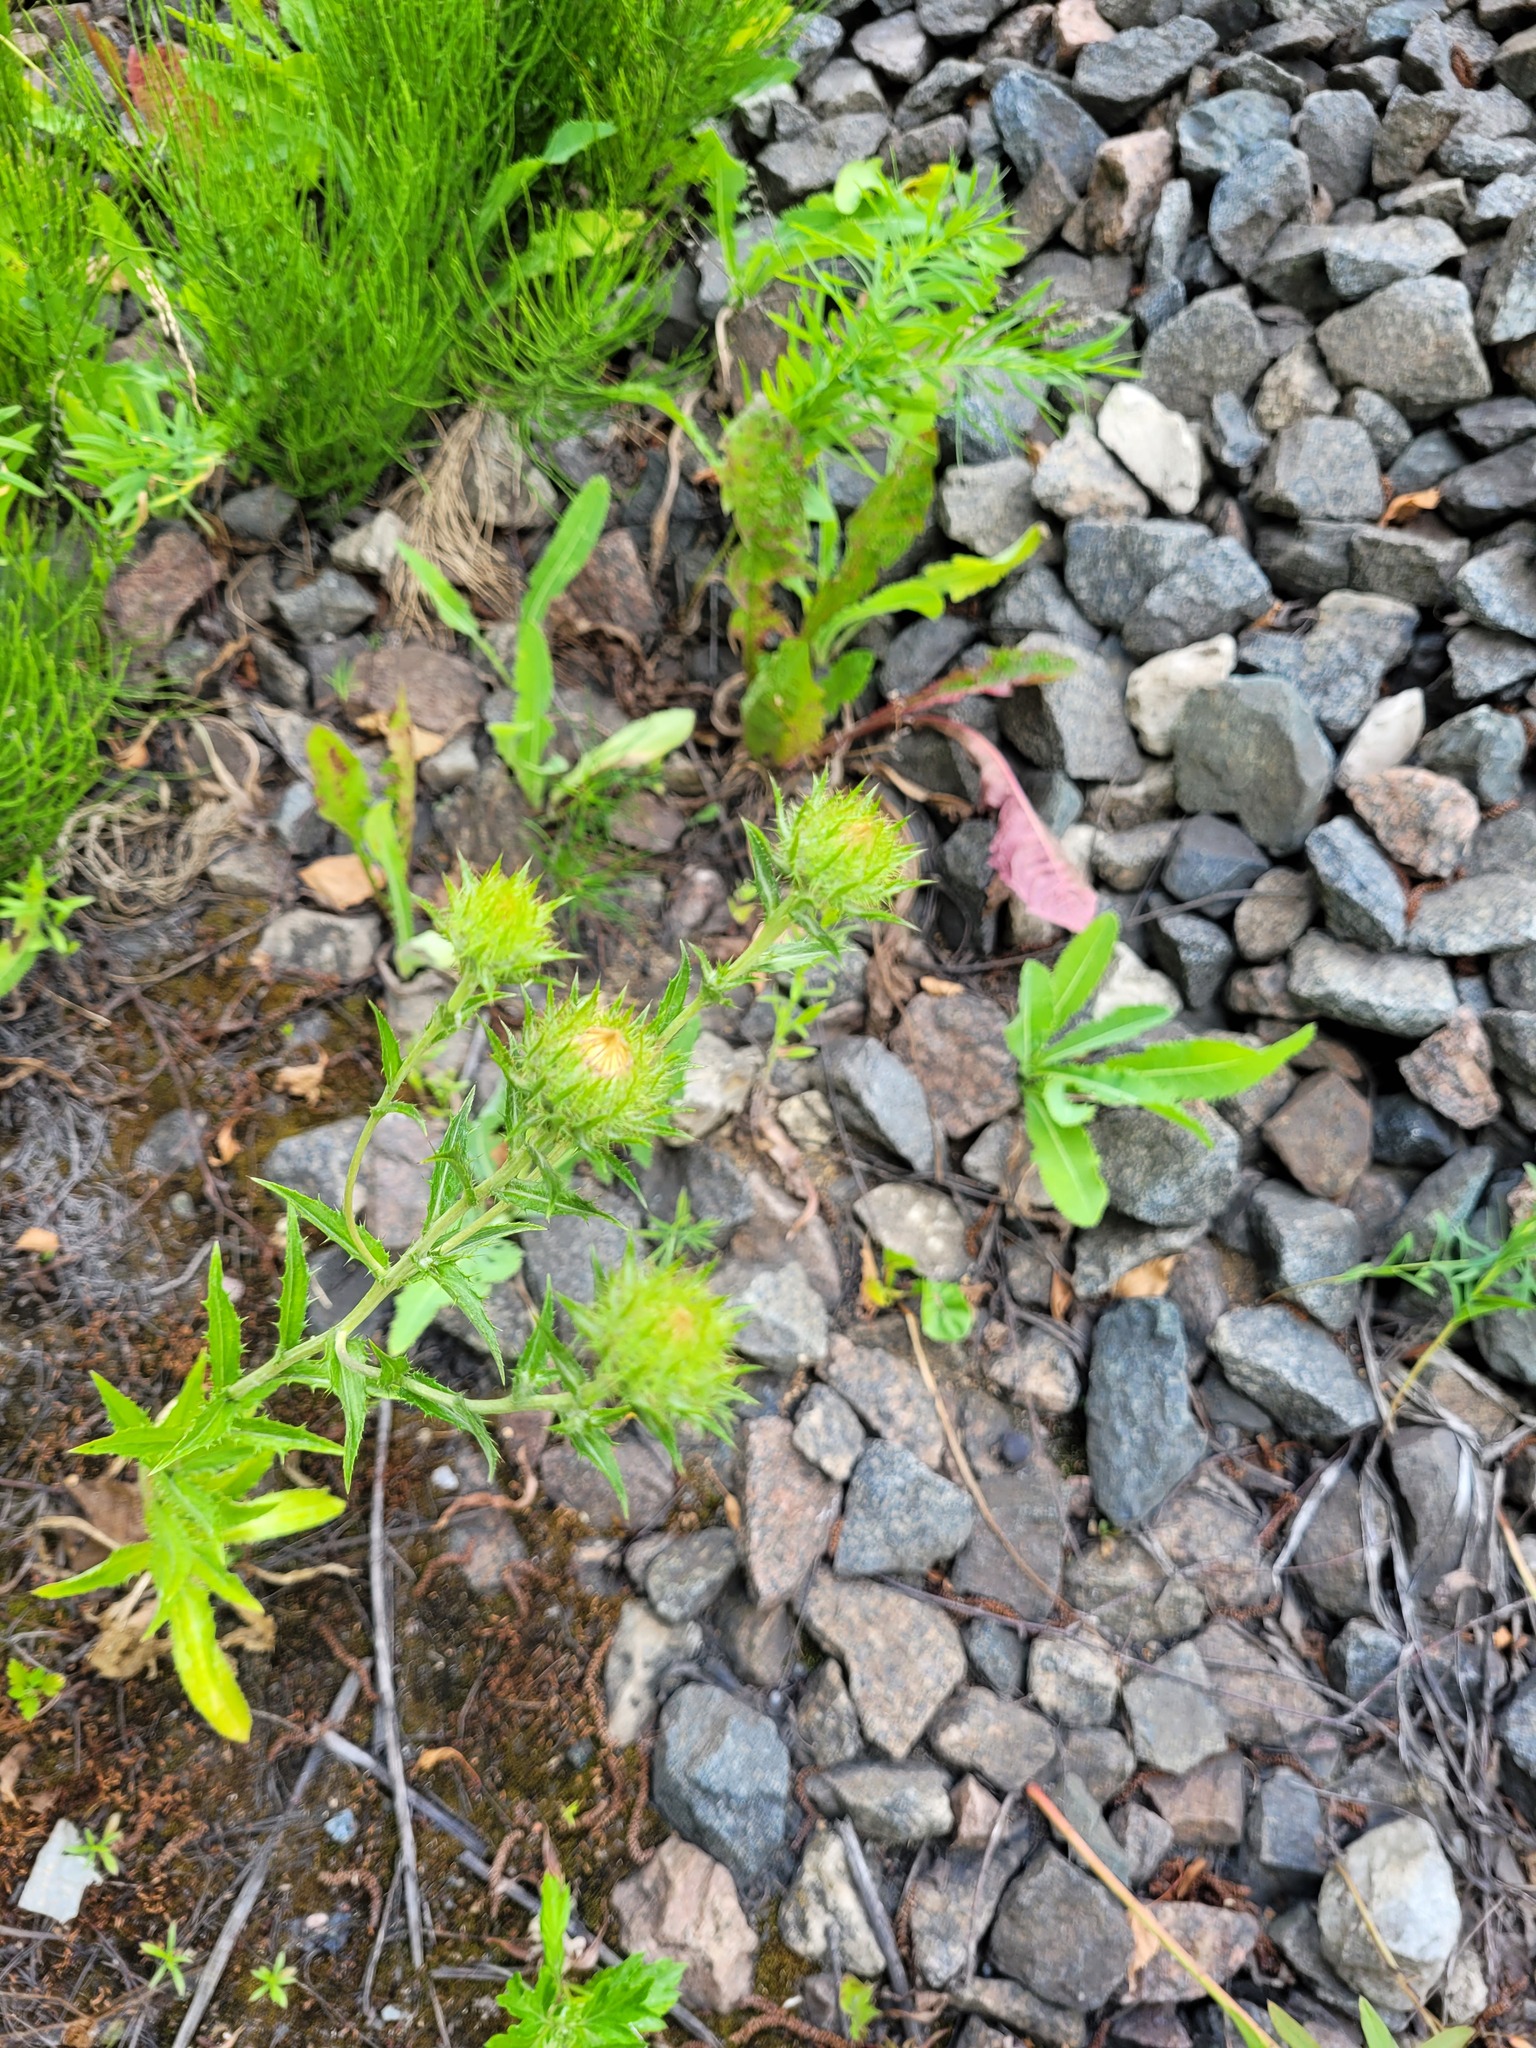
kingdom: Plantae
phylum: Tracheophyta
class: Magnoliopsida
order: Asterales
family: Asteraceae
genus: Carlina
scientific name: Carlina biebersteinii
